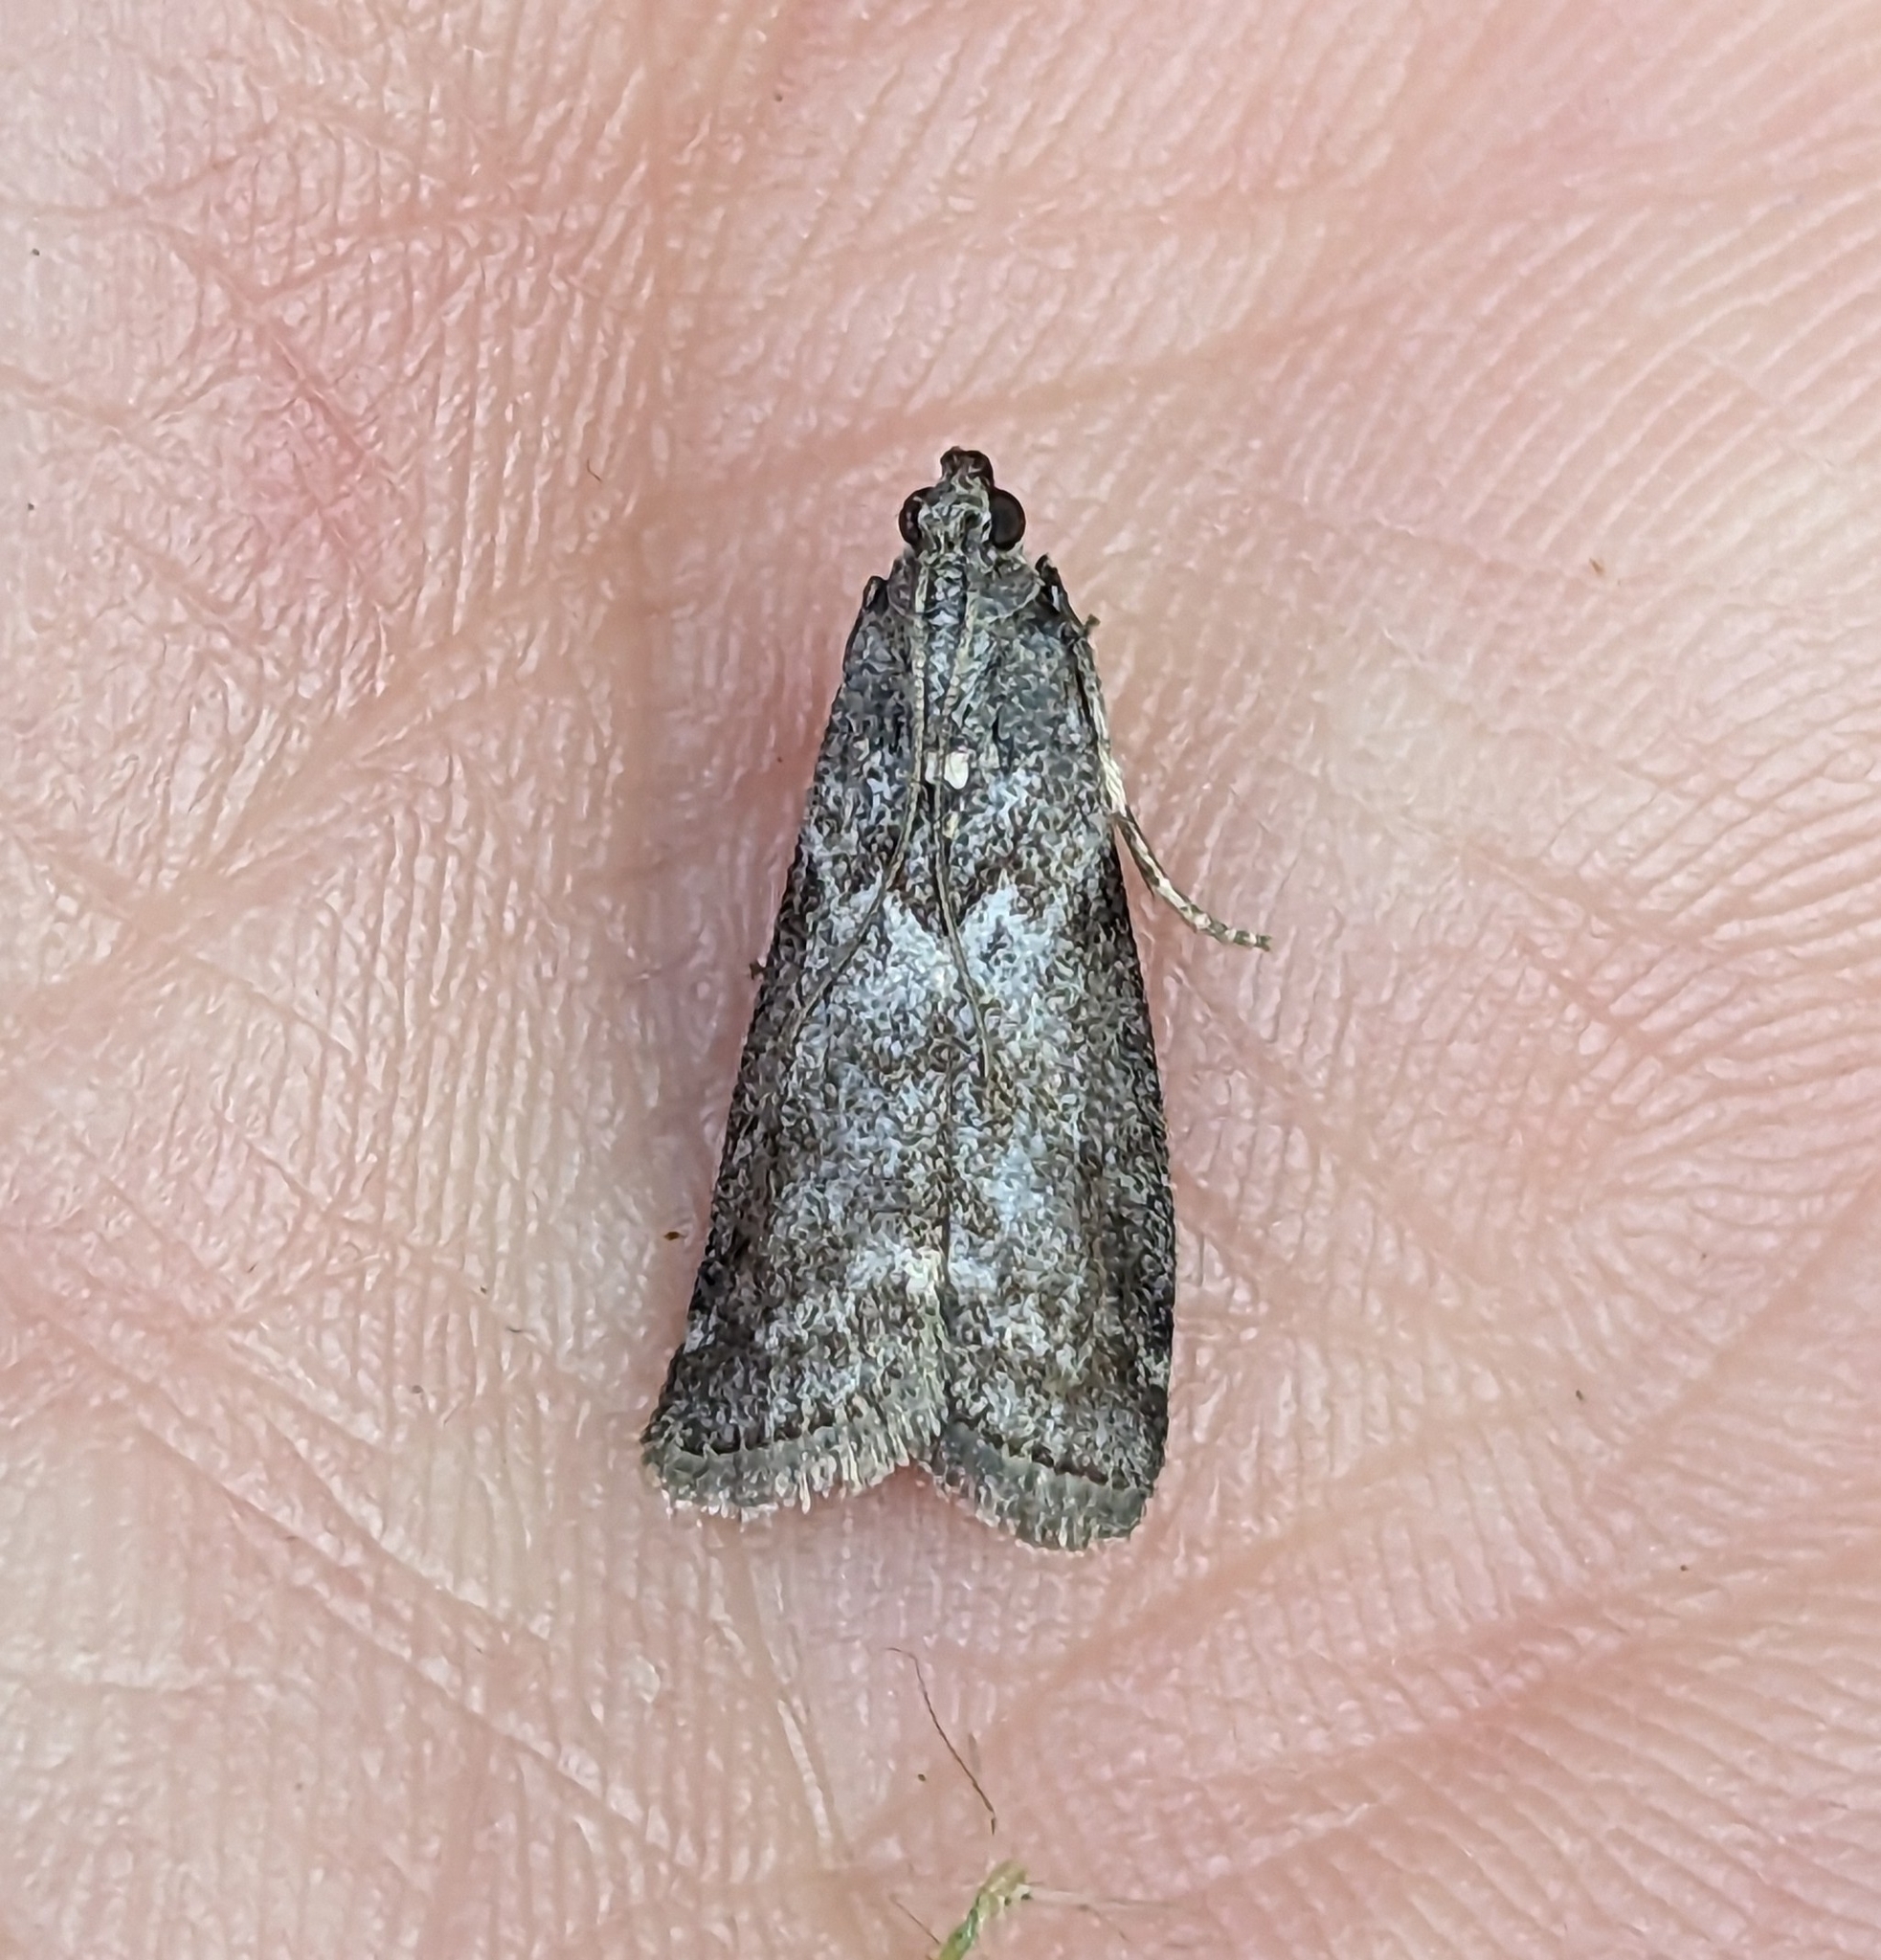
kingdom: Animalia
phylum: Arthropoda
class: Insecta
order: Lepidoptera
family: Pyralidae
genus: Oreana
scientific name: Oreana unicolorella
